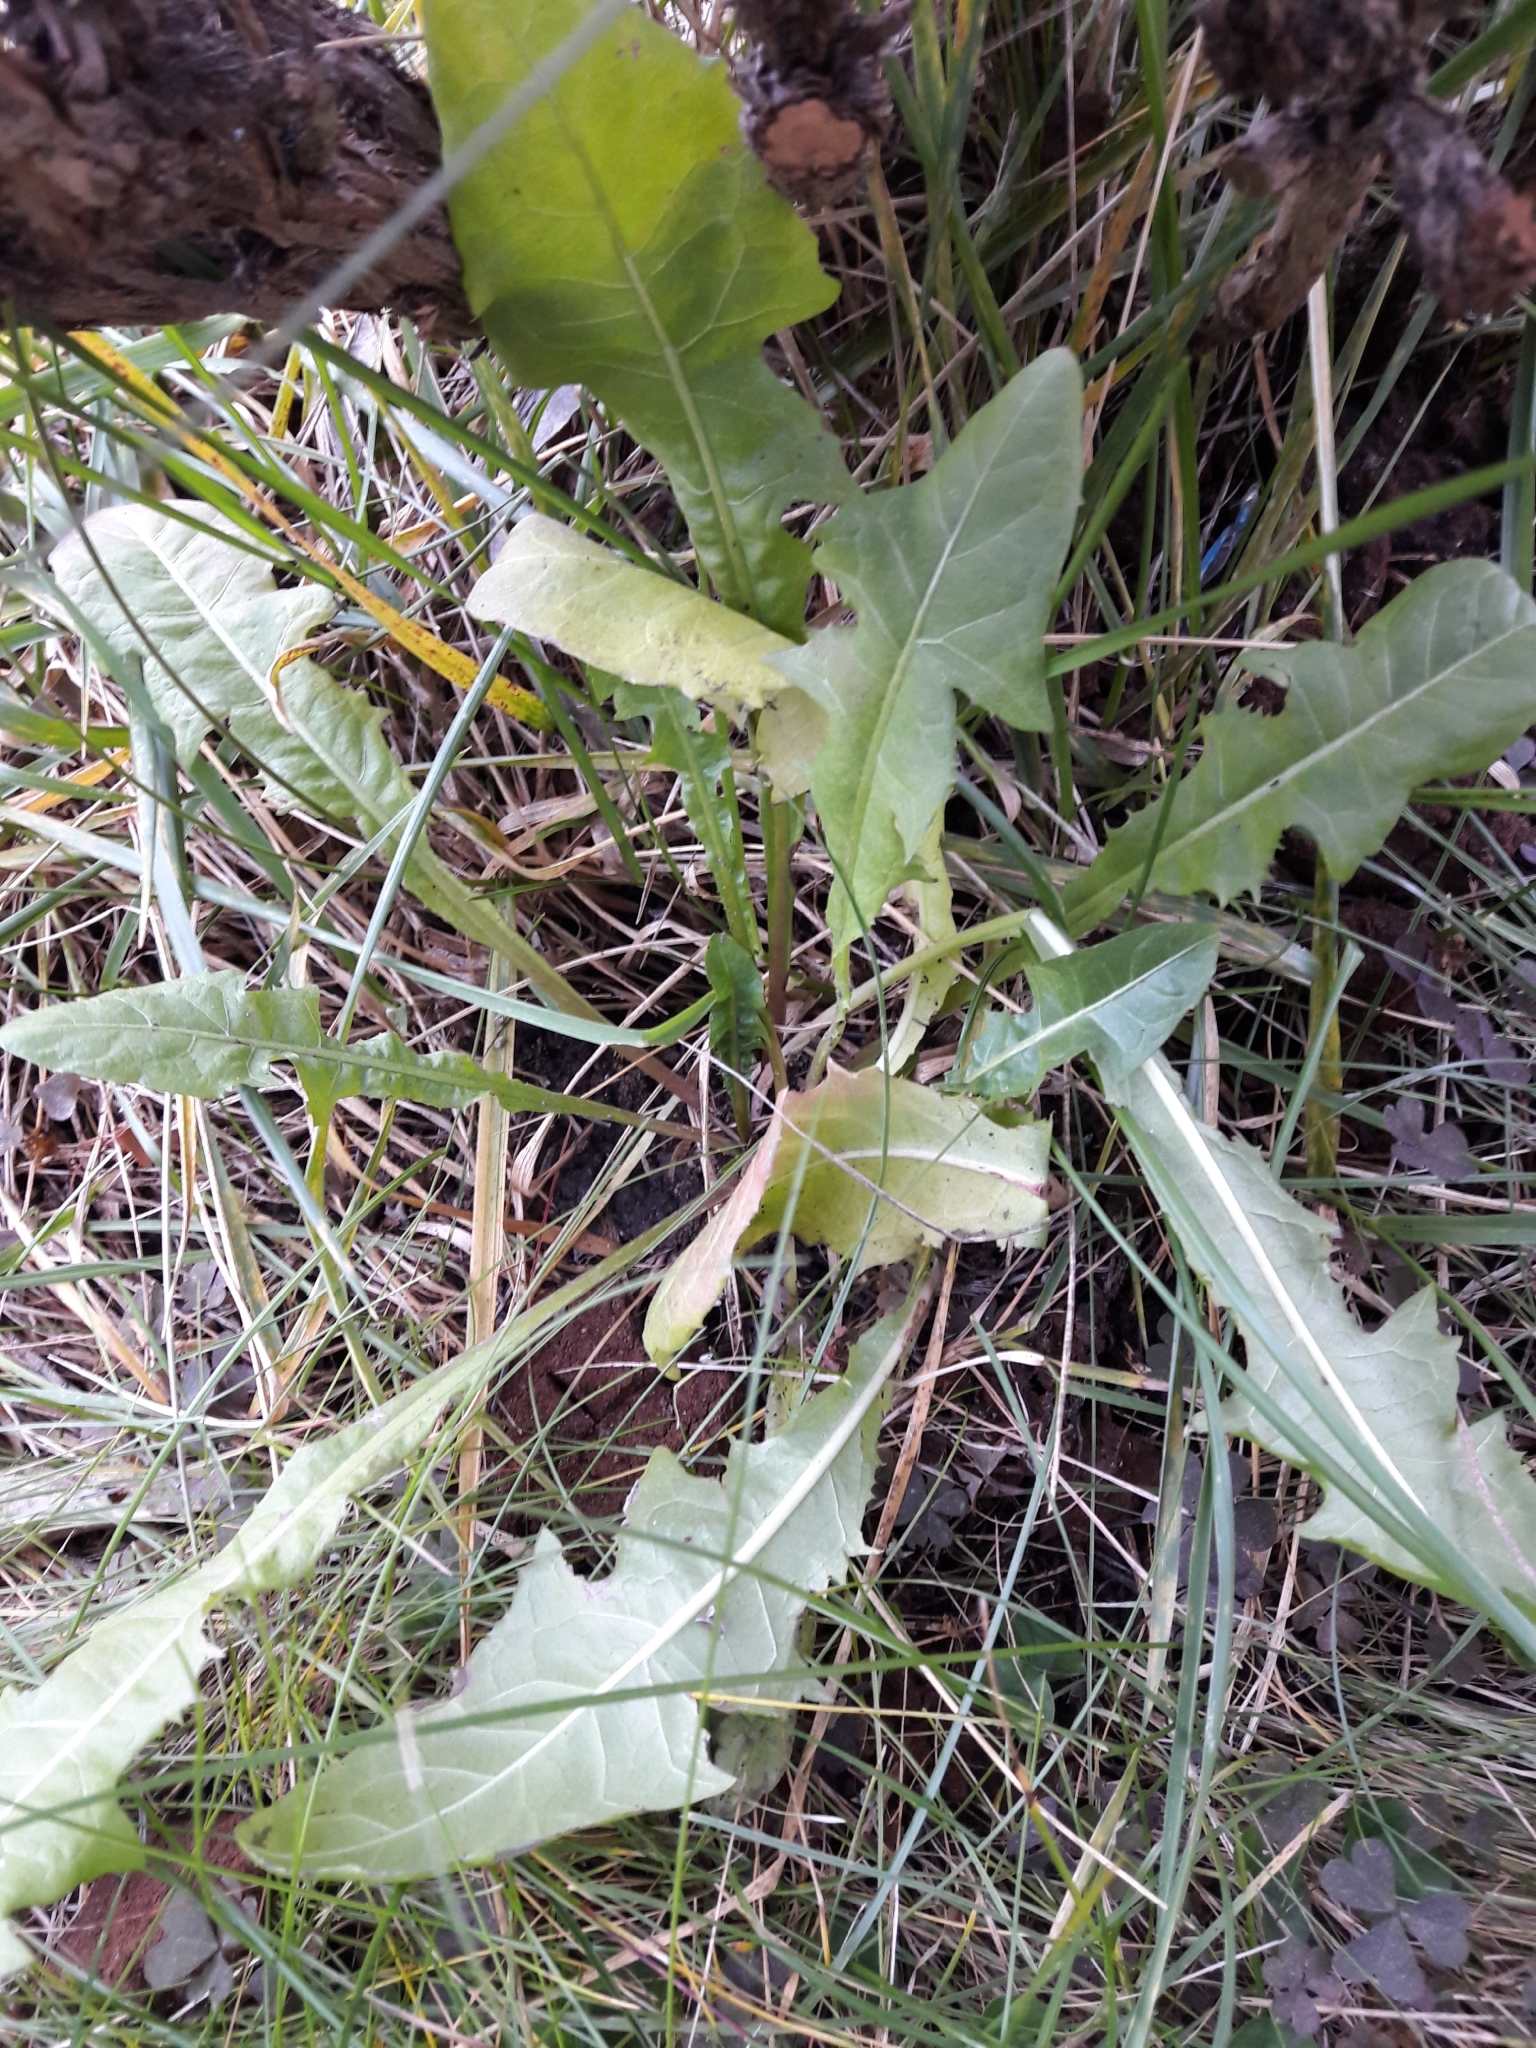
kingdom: Plantae
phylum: Tracheophyta
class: Magnoliopsida
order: Asterales
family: Asteraceae
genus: Taraxacum
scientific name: Taraxacum officinale
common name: Common dandelion
